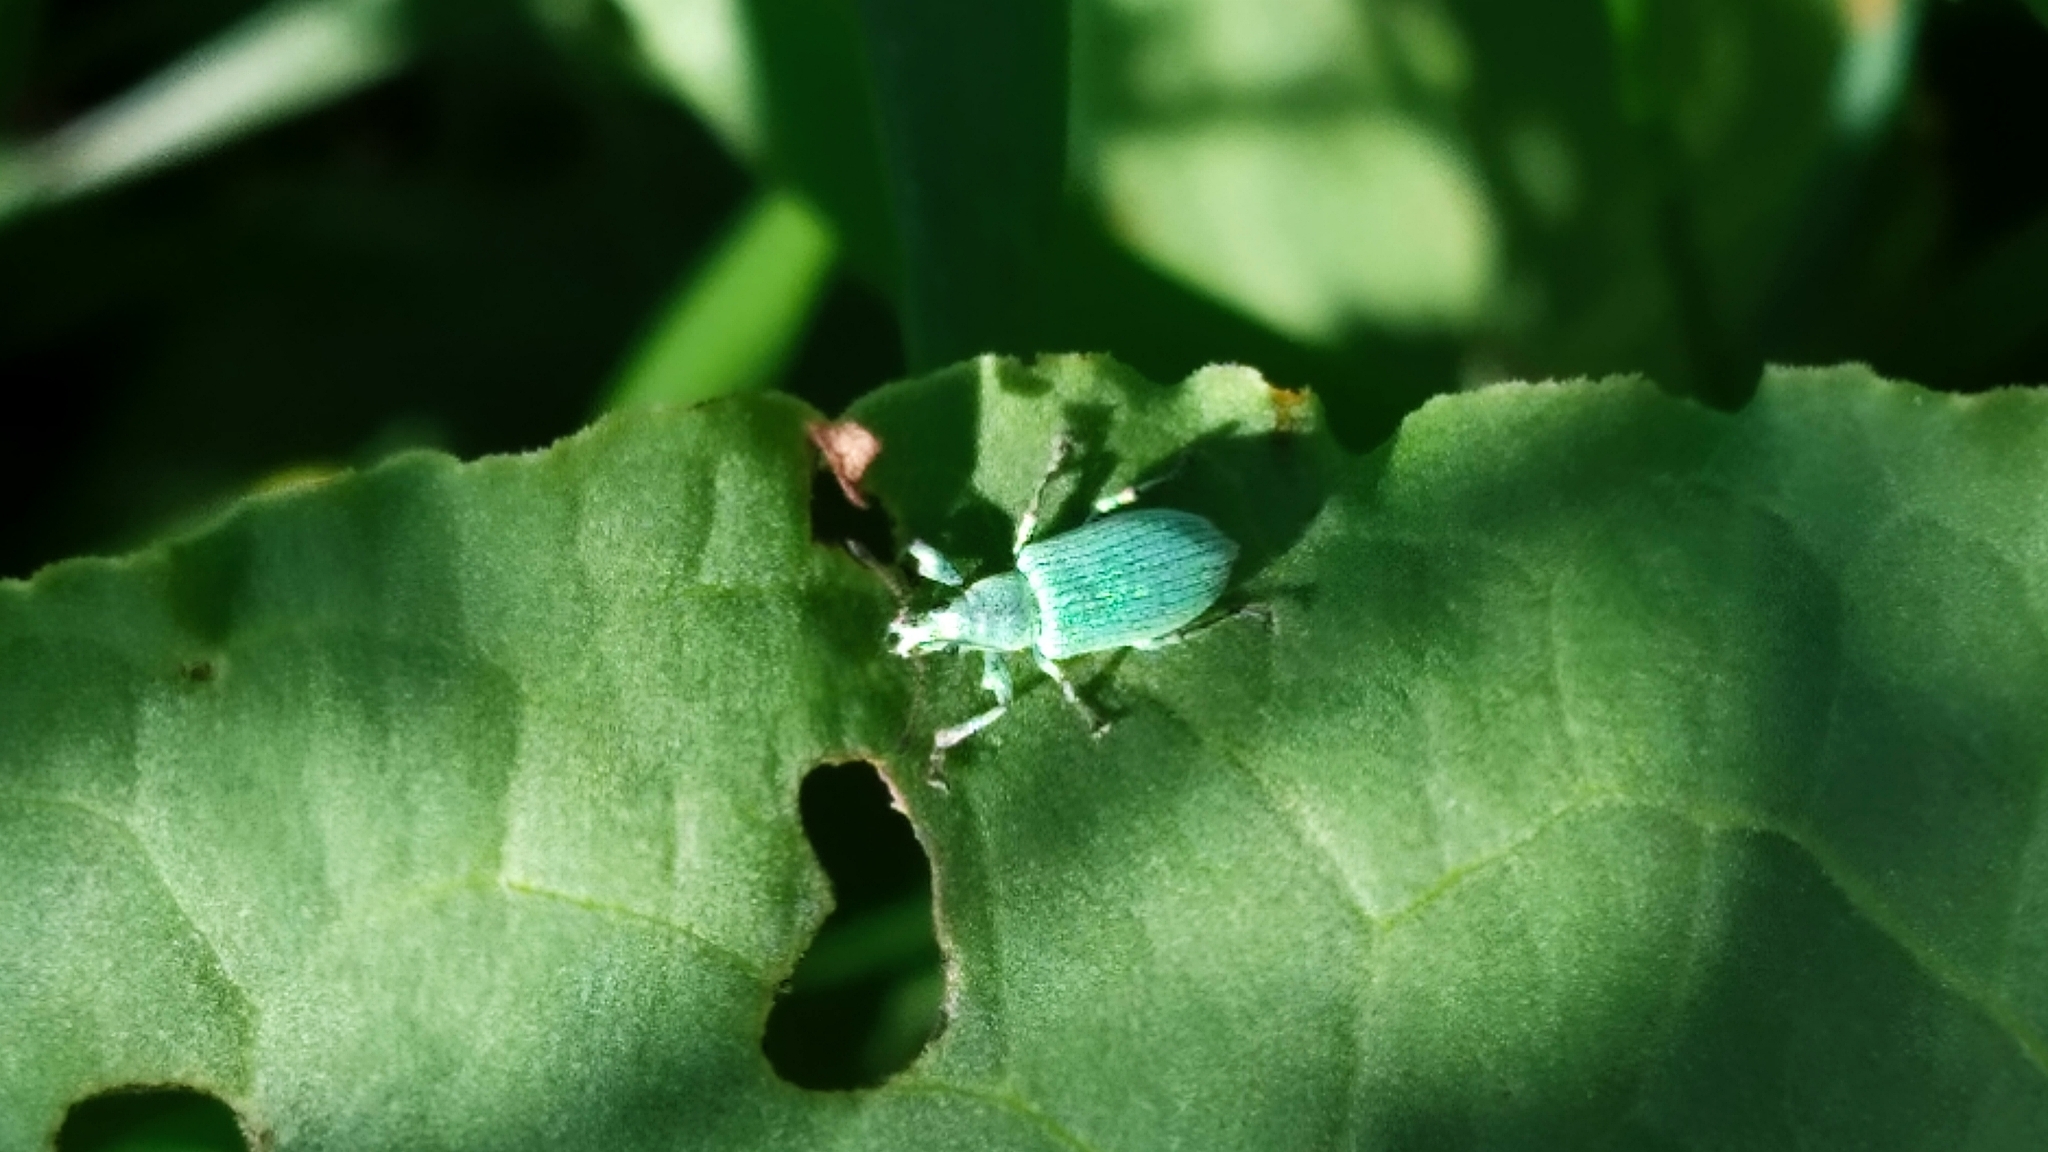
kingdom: Animalia
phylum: Arthropoda
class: Insecta
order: Coleoptera
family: Curculionidae
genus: Phyllobius
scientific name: Phyllobius maculicornis
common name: Green leaf weevil
